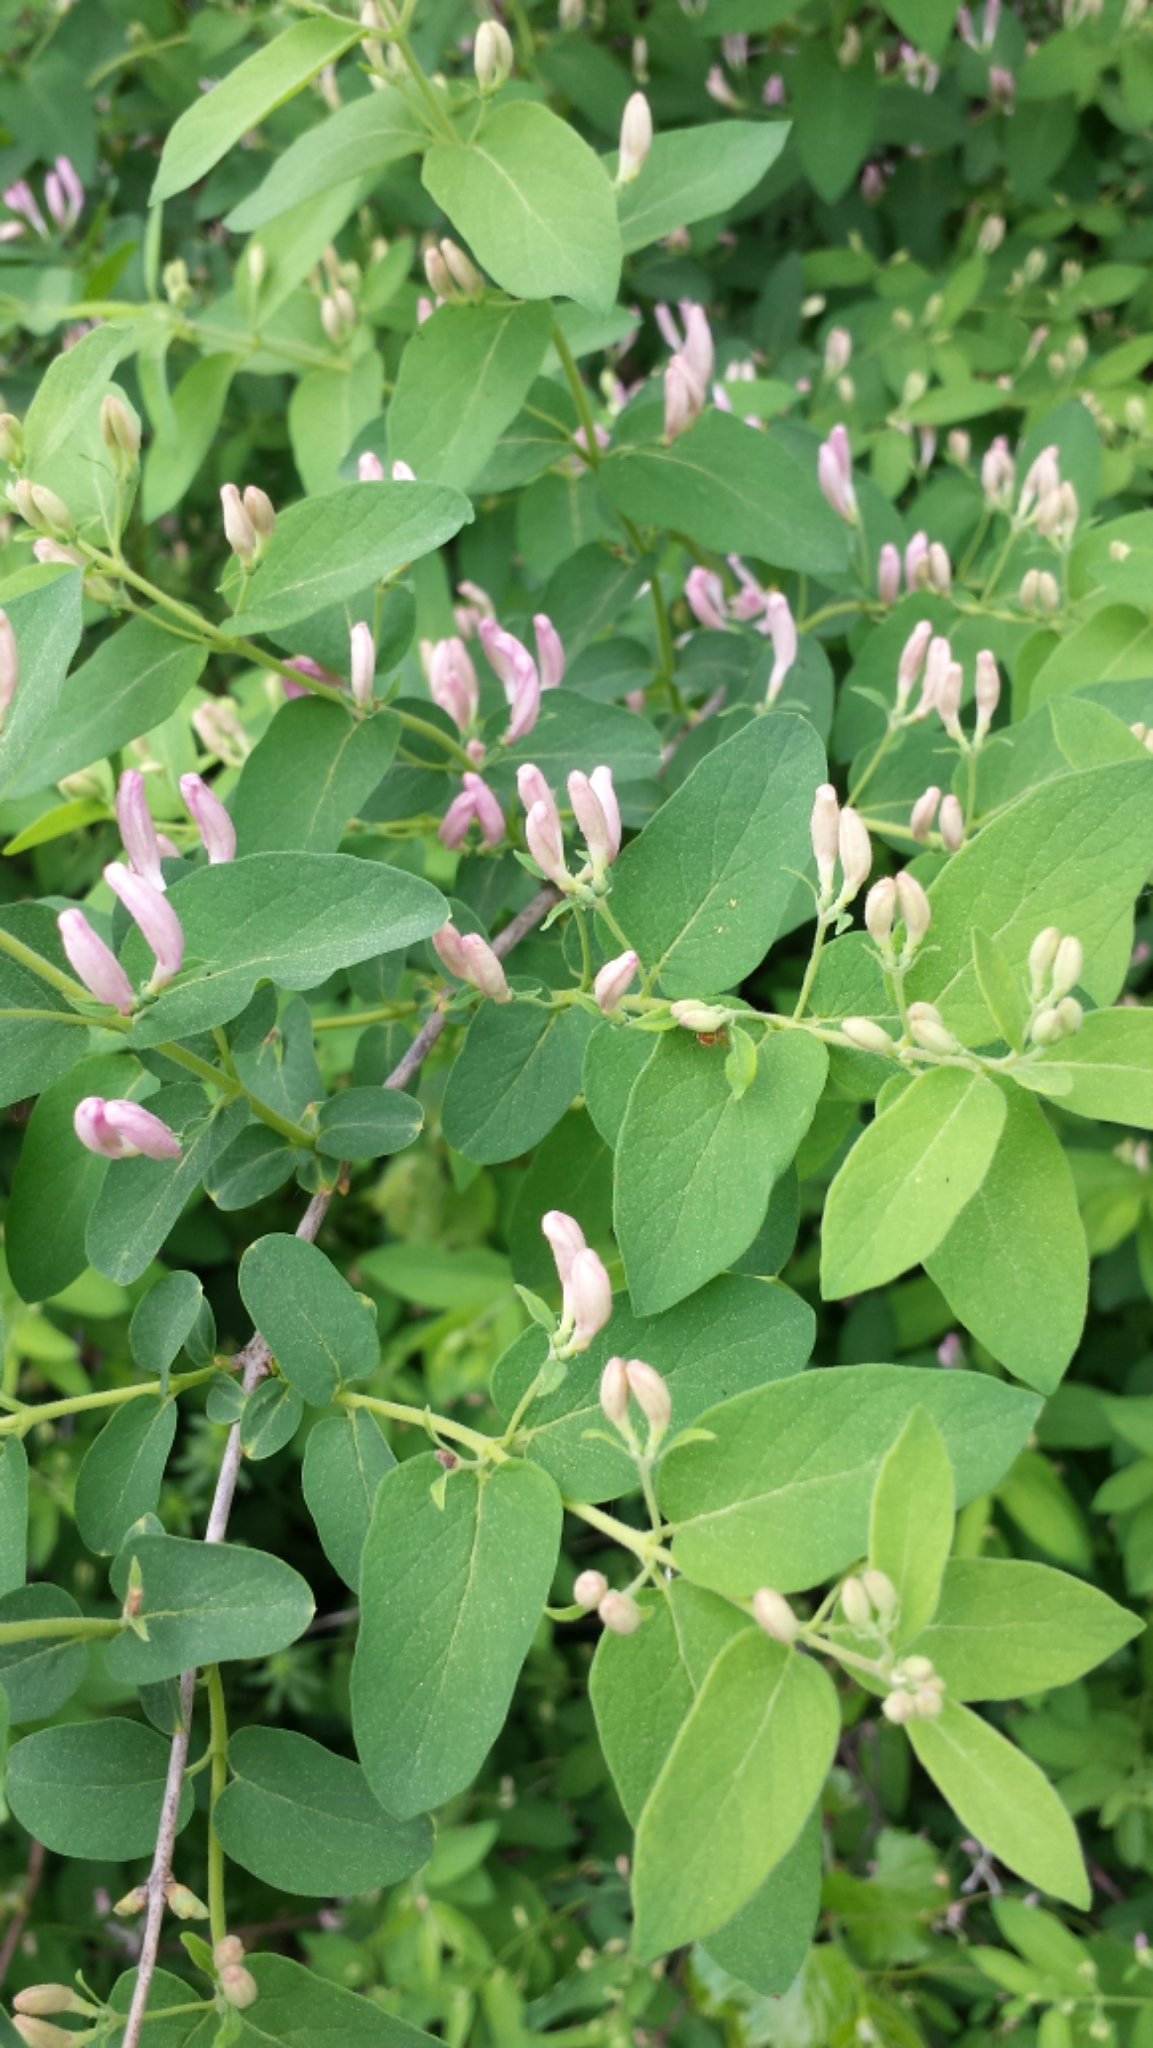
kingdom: Plantae
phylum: Tracheophyta
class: Magnoliopsida
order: Dipsacales
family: Caprifoliaceae
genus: Lonicera
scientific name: Lonicera
